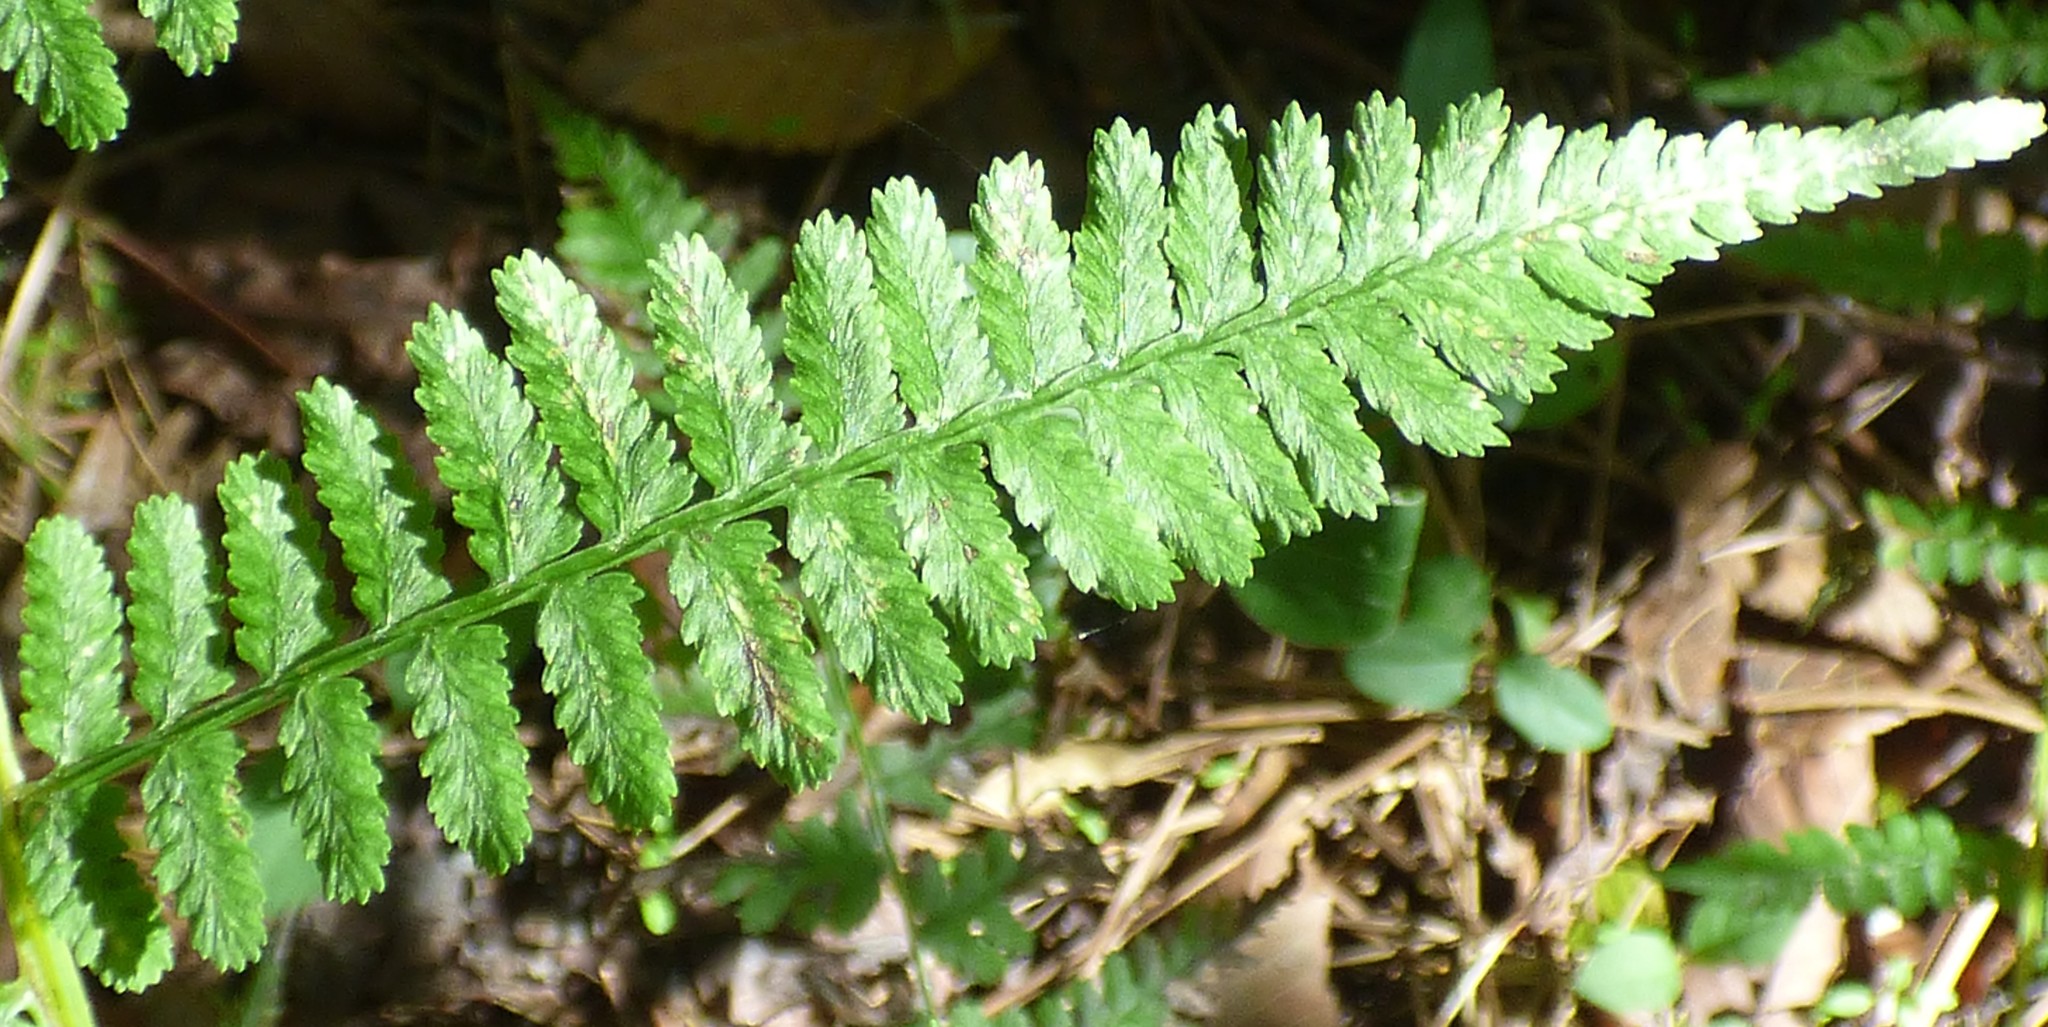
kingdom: Plantae
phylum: Tracheophyta
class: Polypodiopsida
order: Polypodiales
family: Athyriaceae
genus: Athyrium
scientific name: Athyrium asplenioides
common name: Southern lady fern
